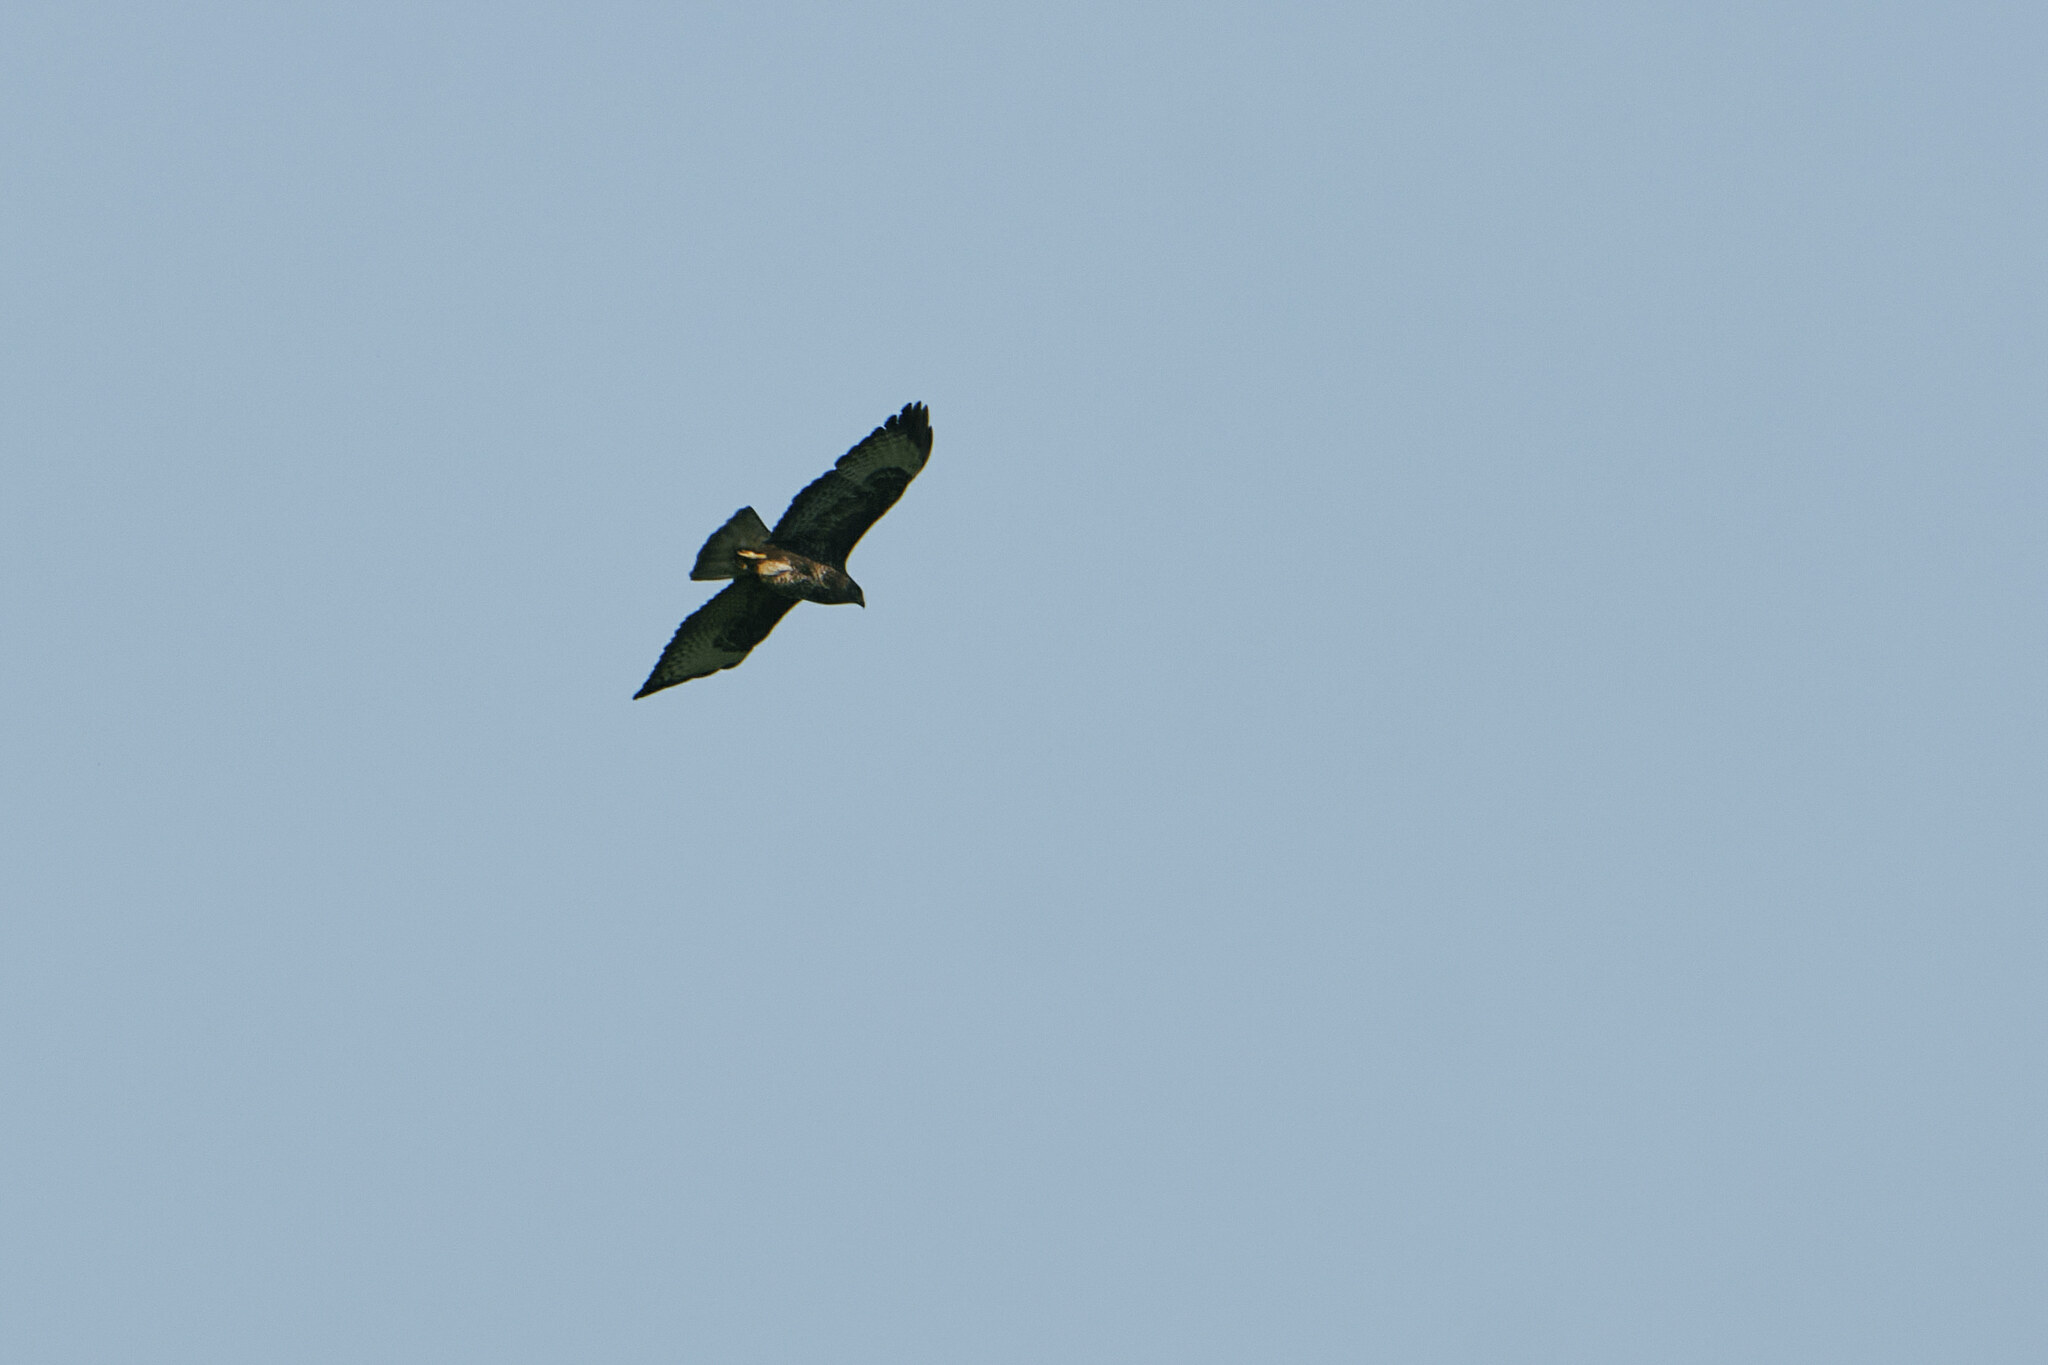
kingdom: Animalia
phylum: Chordata
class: Aves
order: Accipitriformes
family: Accipitridae
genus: Buteo
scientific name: Buteo buteo
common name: Common buzzard
